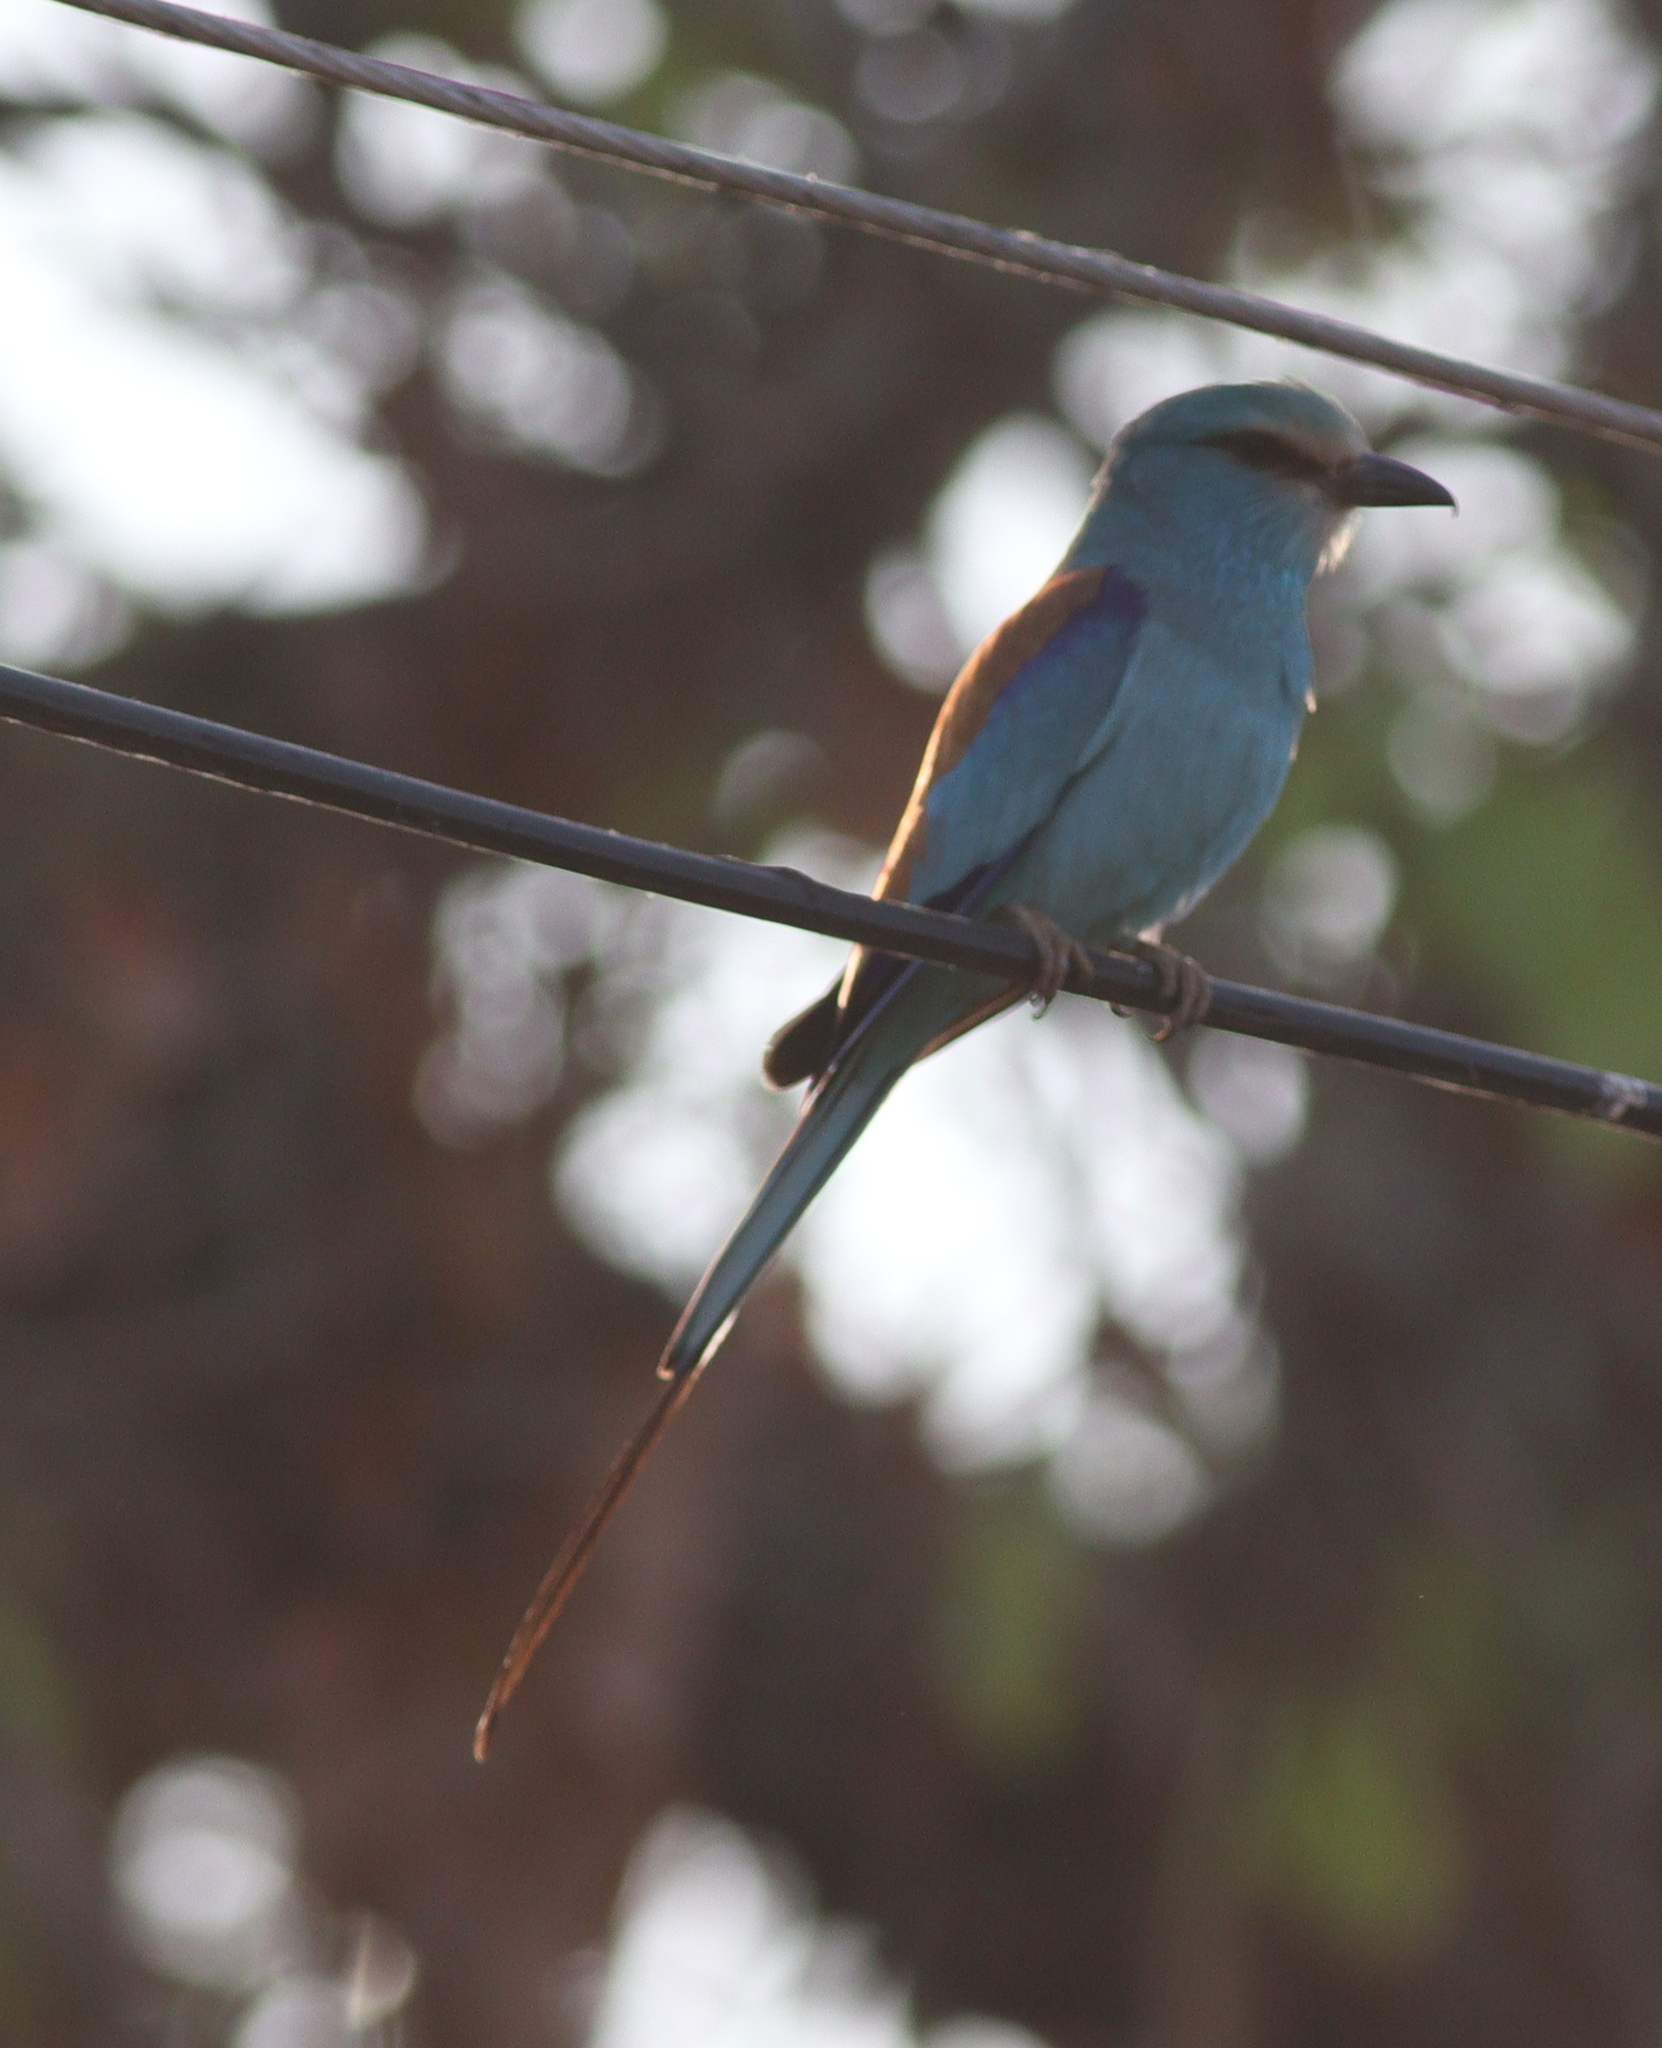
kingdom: Animalia
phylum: Chordata
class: Aves
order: Coraciiformes
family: Coraciidae
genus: Coracias
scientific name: Coracias abyssinicus
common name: Abyssinian roller
